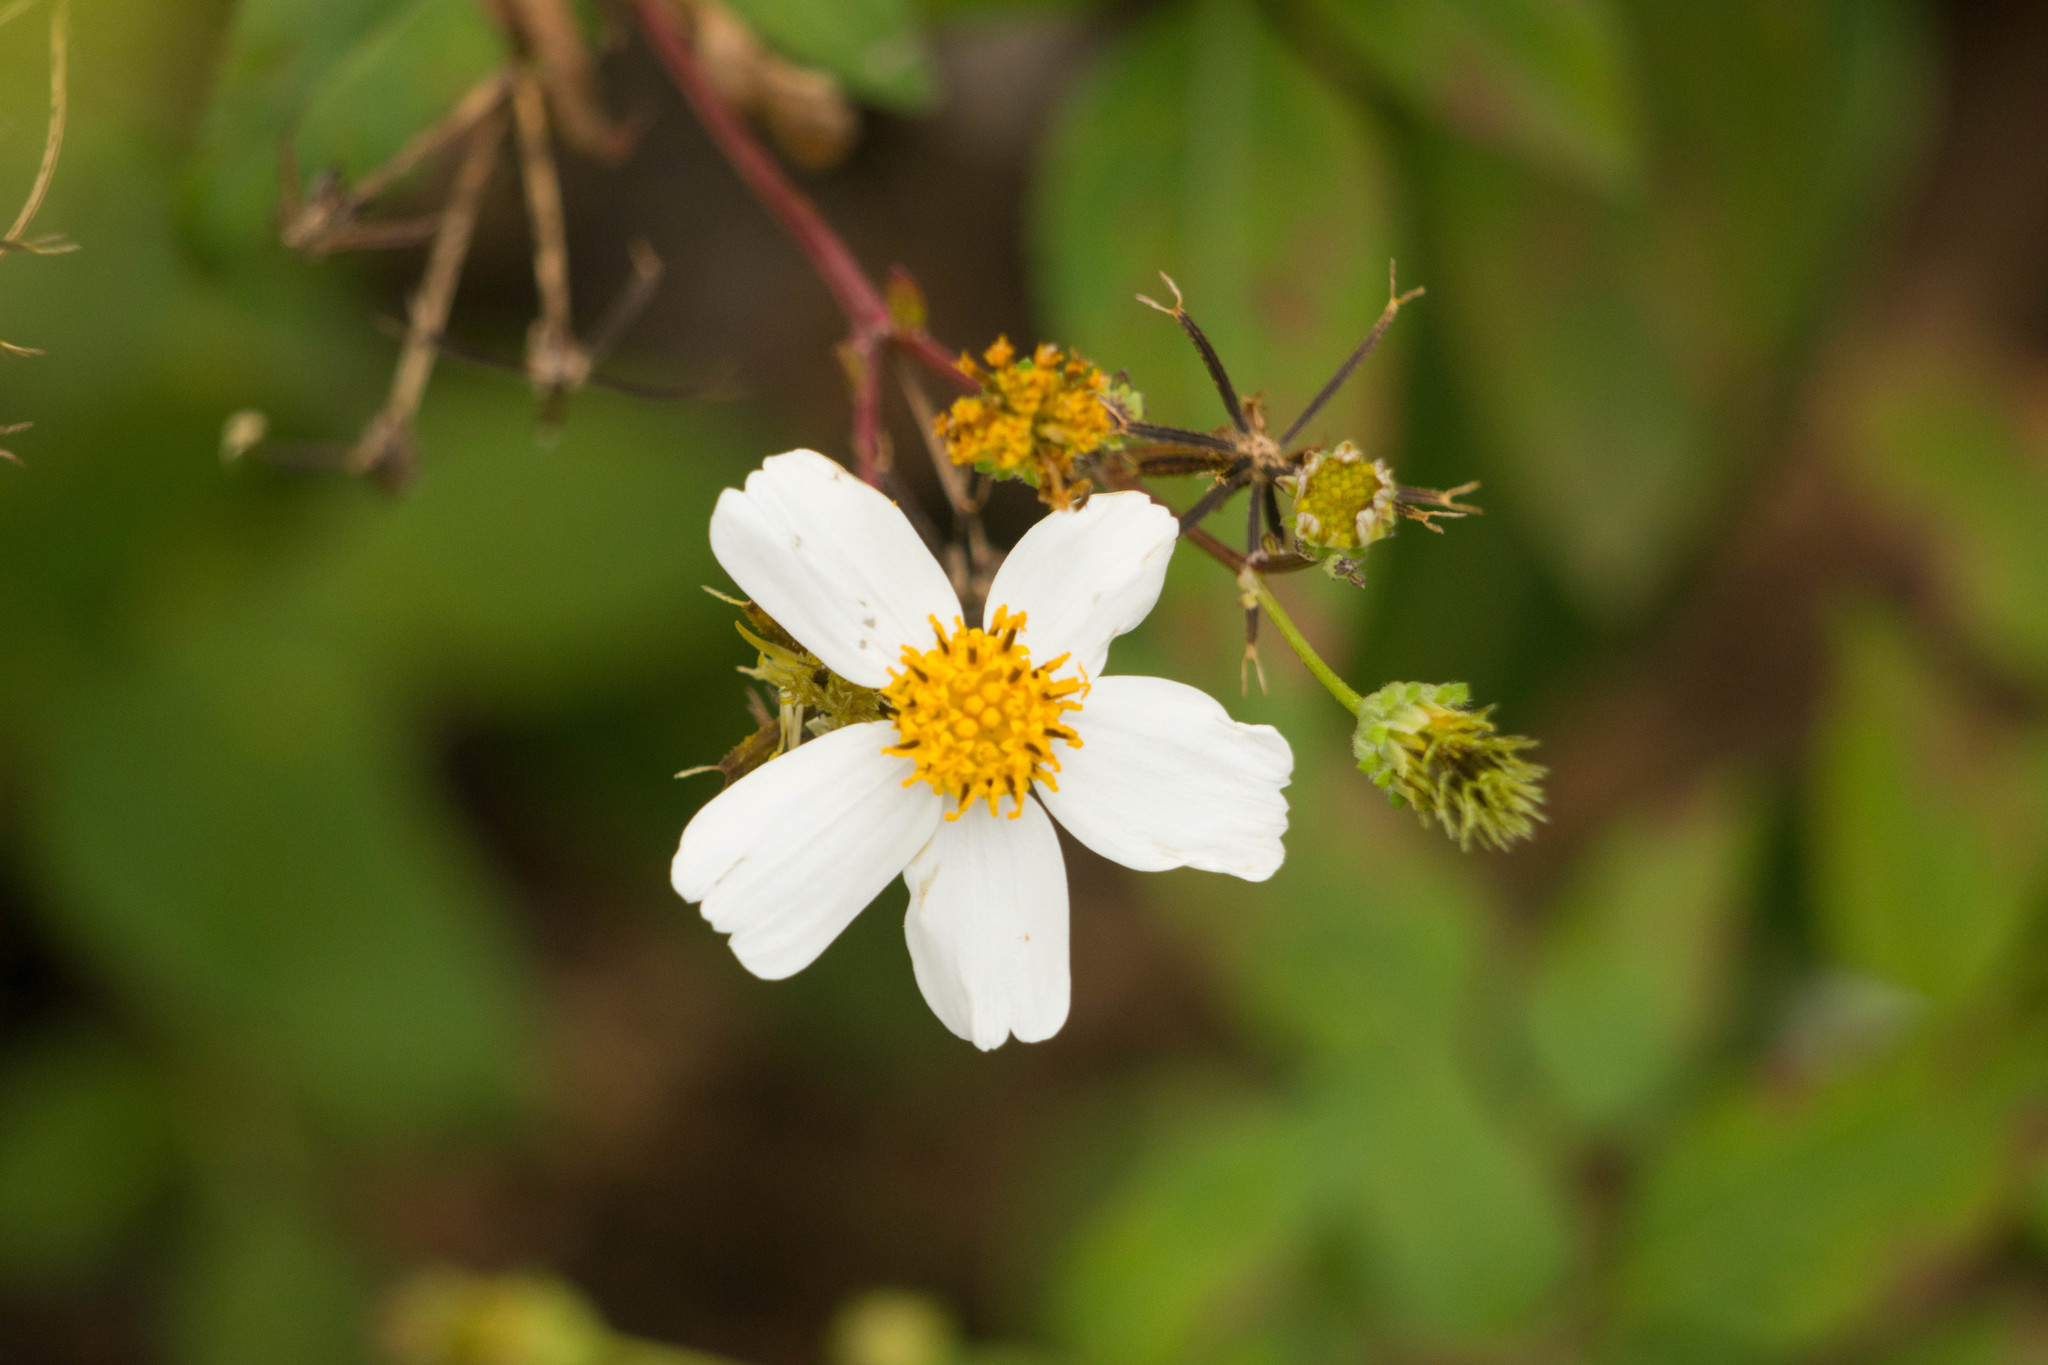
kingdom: Plantae
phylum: Tracheophyta
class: Magnoliopsida
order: Asterales
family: Asteraceae
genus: Bidens
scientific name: Bidens alba
